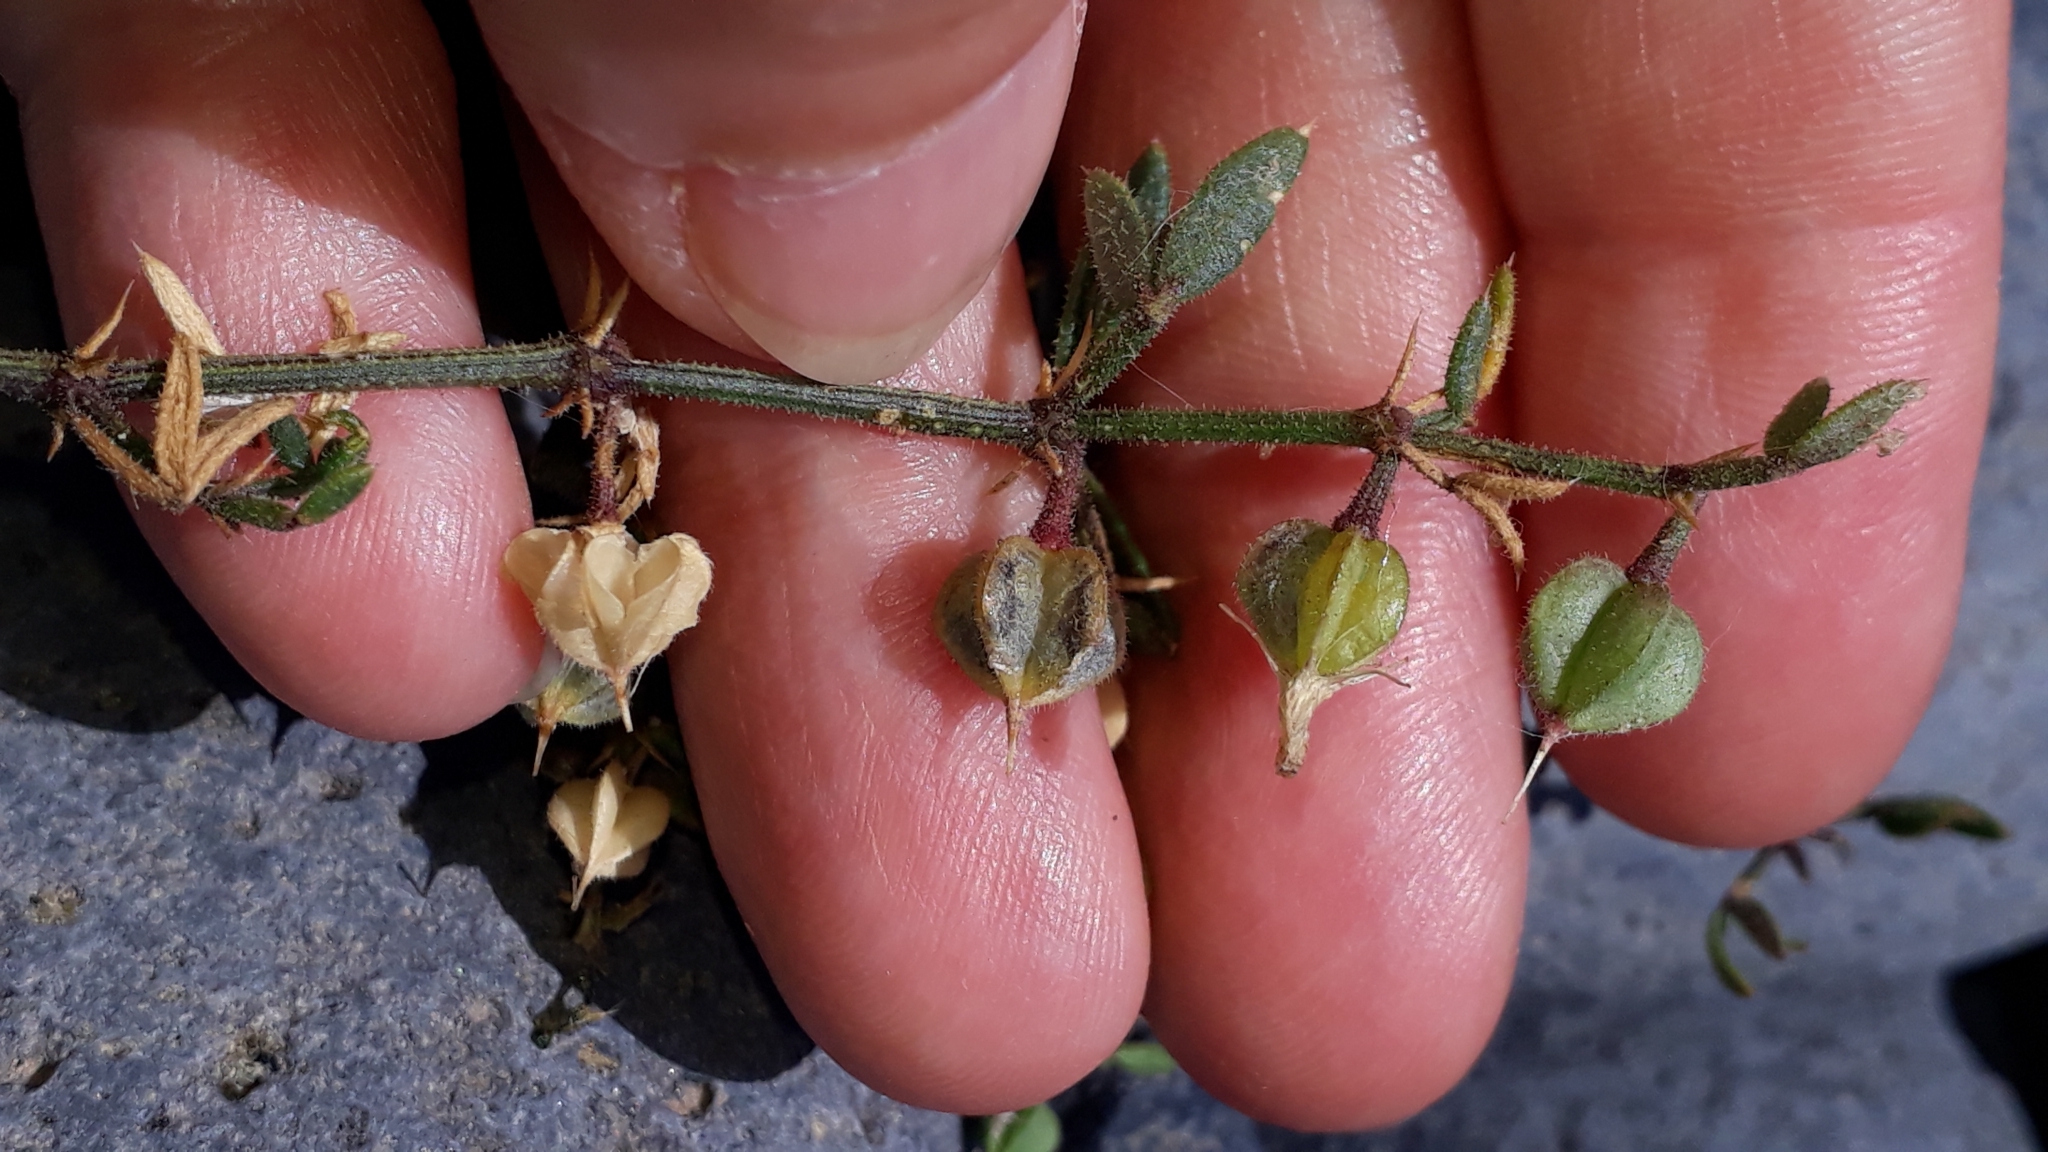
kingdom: Plantae
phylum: Tracheophyta
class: Magnoliopsida
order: Zygophyllales
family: Zygophyllaceae
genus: Fagonia
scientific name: Fagonia cretica
